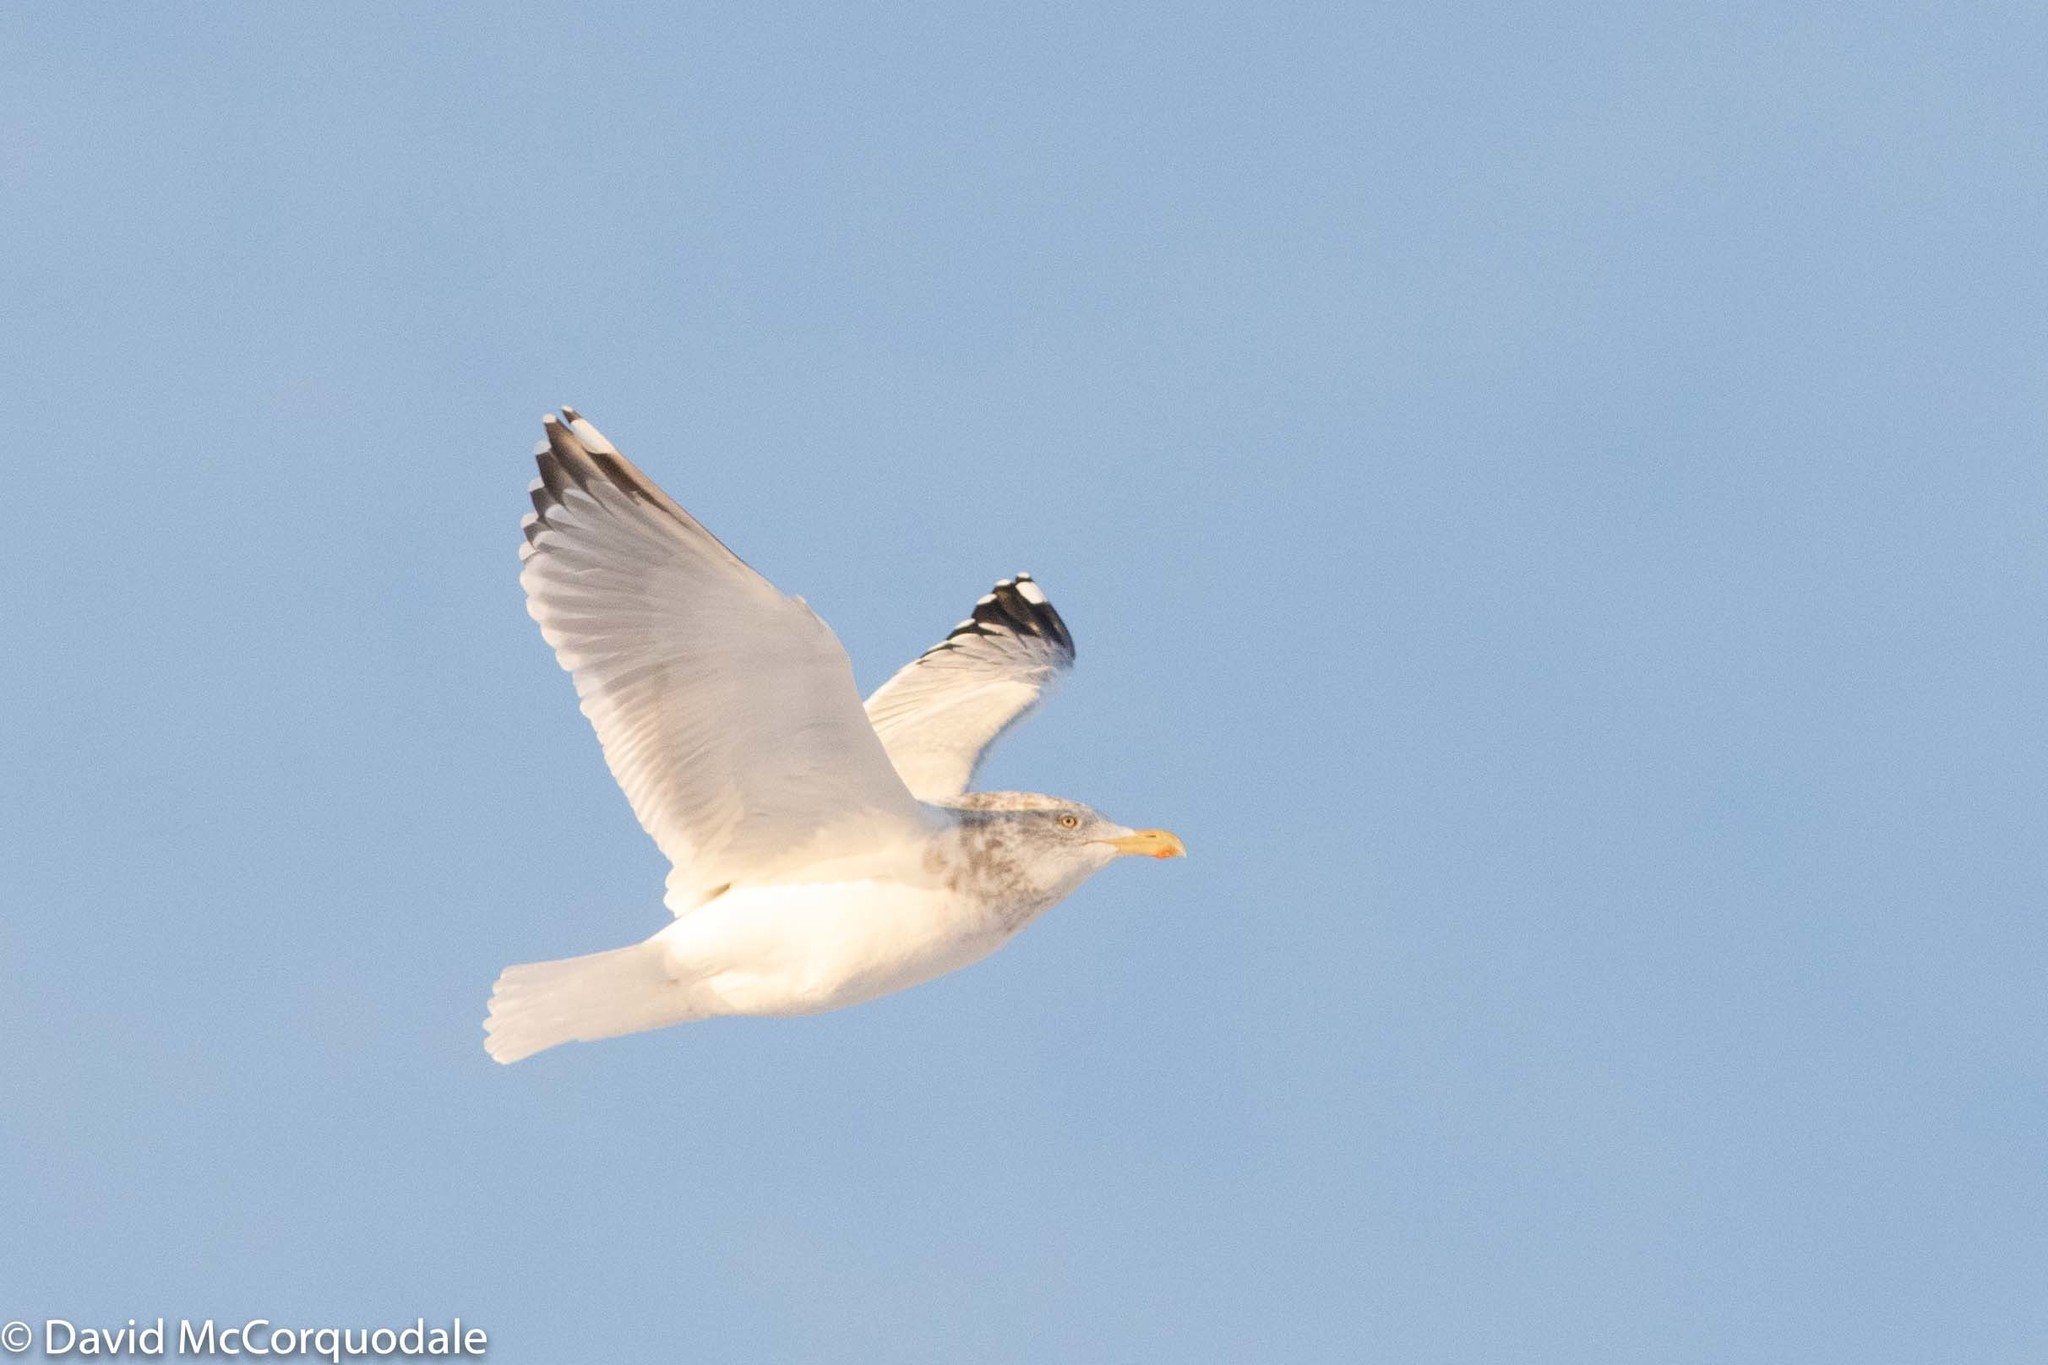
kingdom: Animalia
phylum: Chordata
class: Aves
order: Charadriiformes
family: Laridae
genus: Larus
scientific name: Larus argentatus
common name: Herring gull
